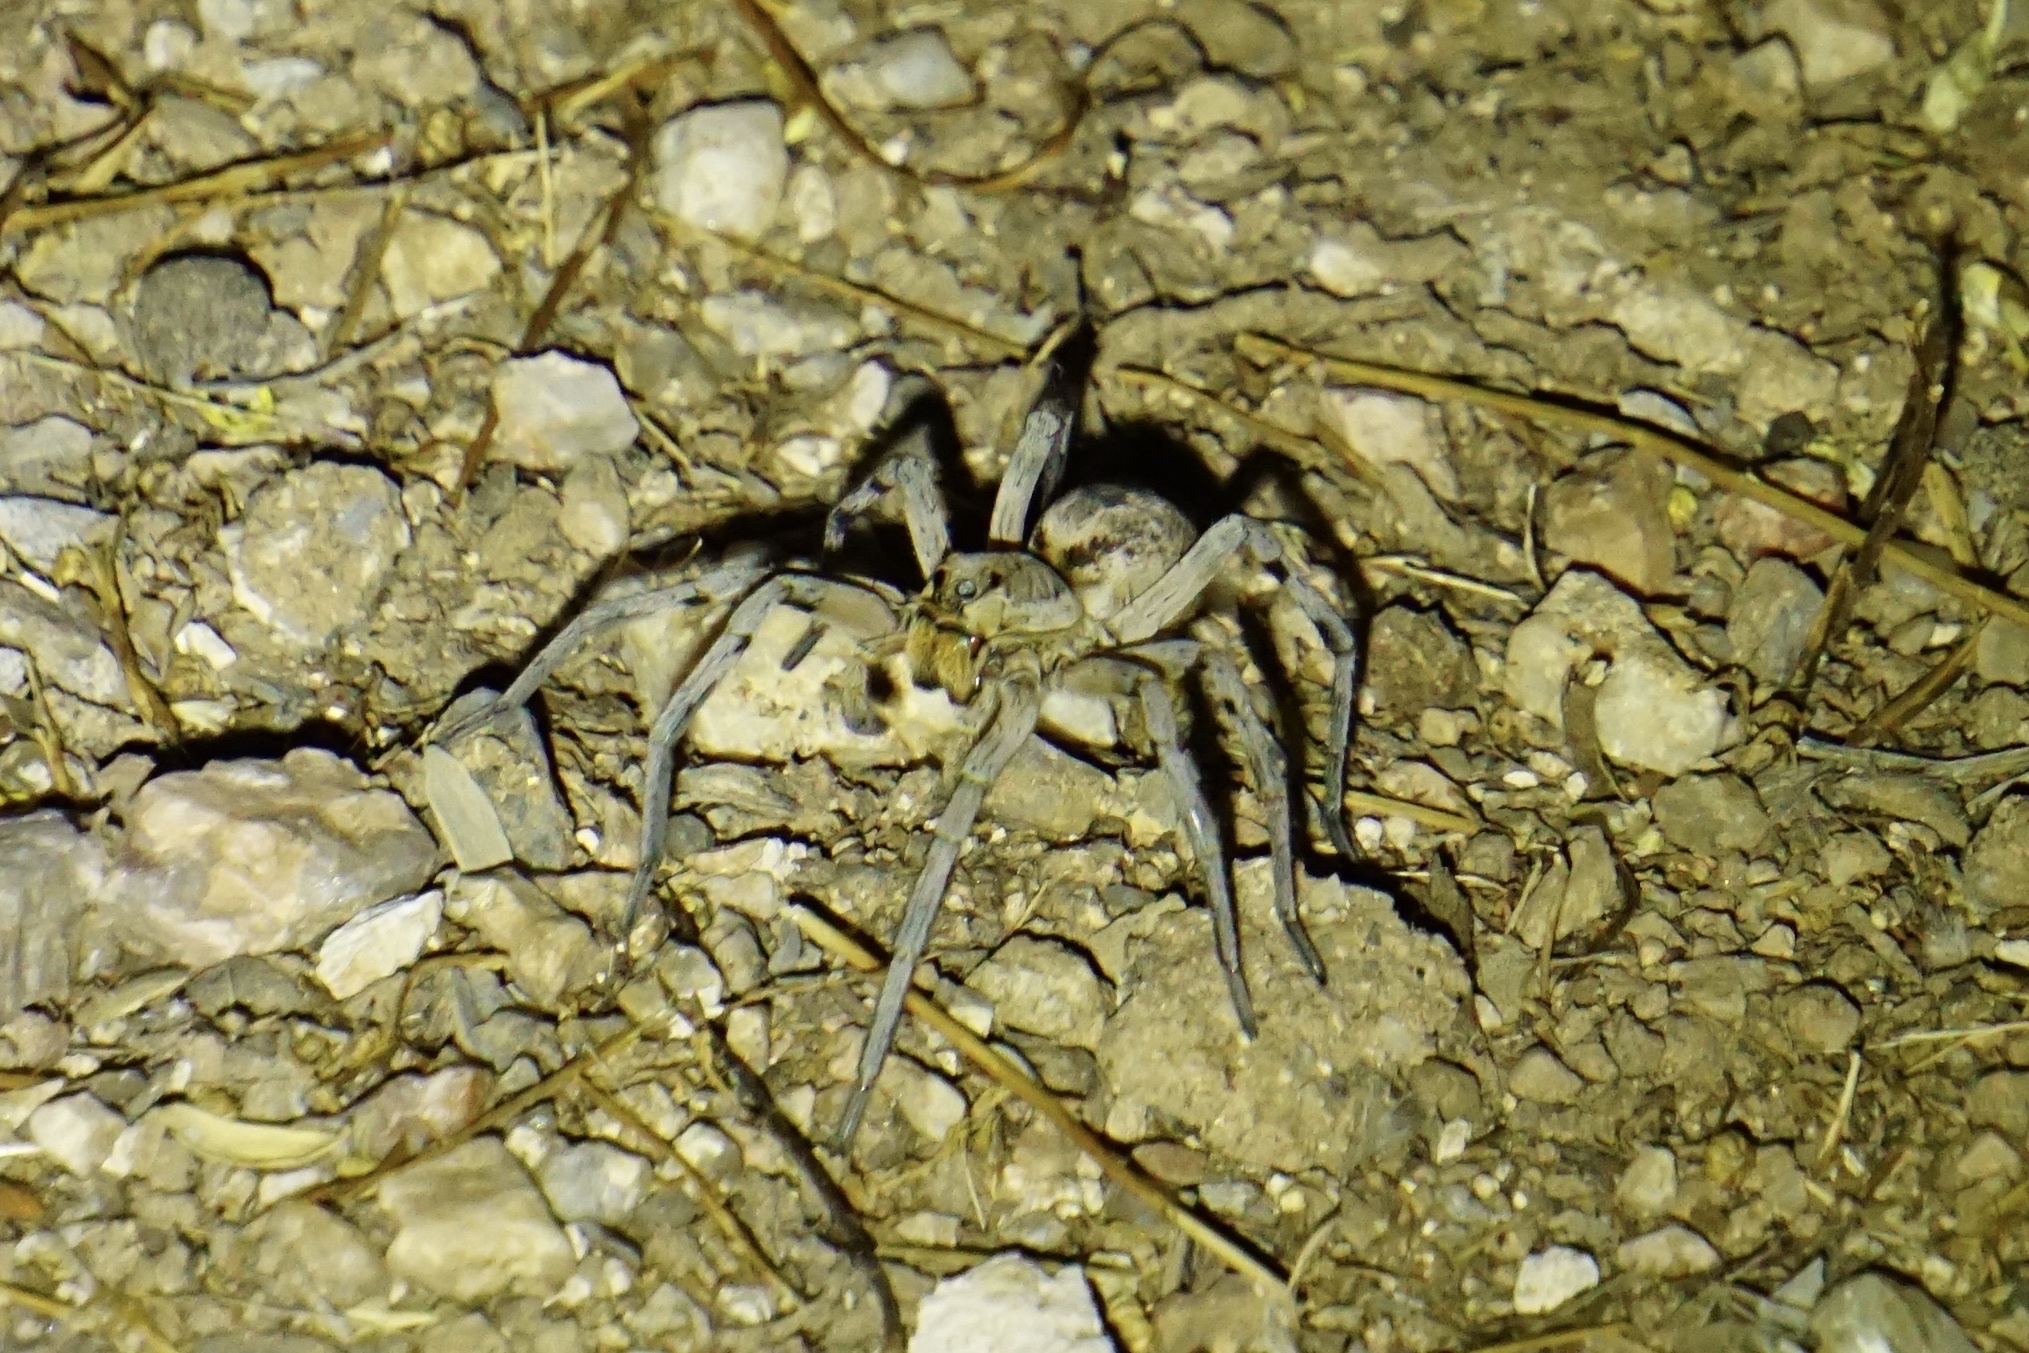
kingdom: Animalia
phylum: Arthropoda
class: Arachnida
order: Araneae
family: Lycosidae
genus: Hogna
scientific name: Hogna carolinensis
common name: Carolina wolf spider
